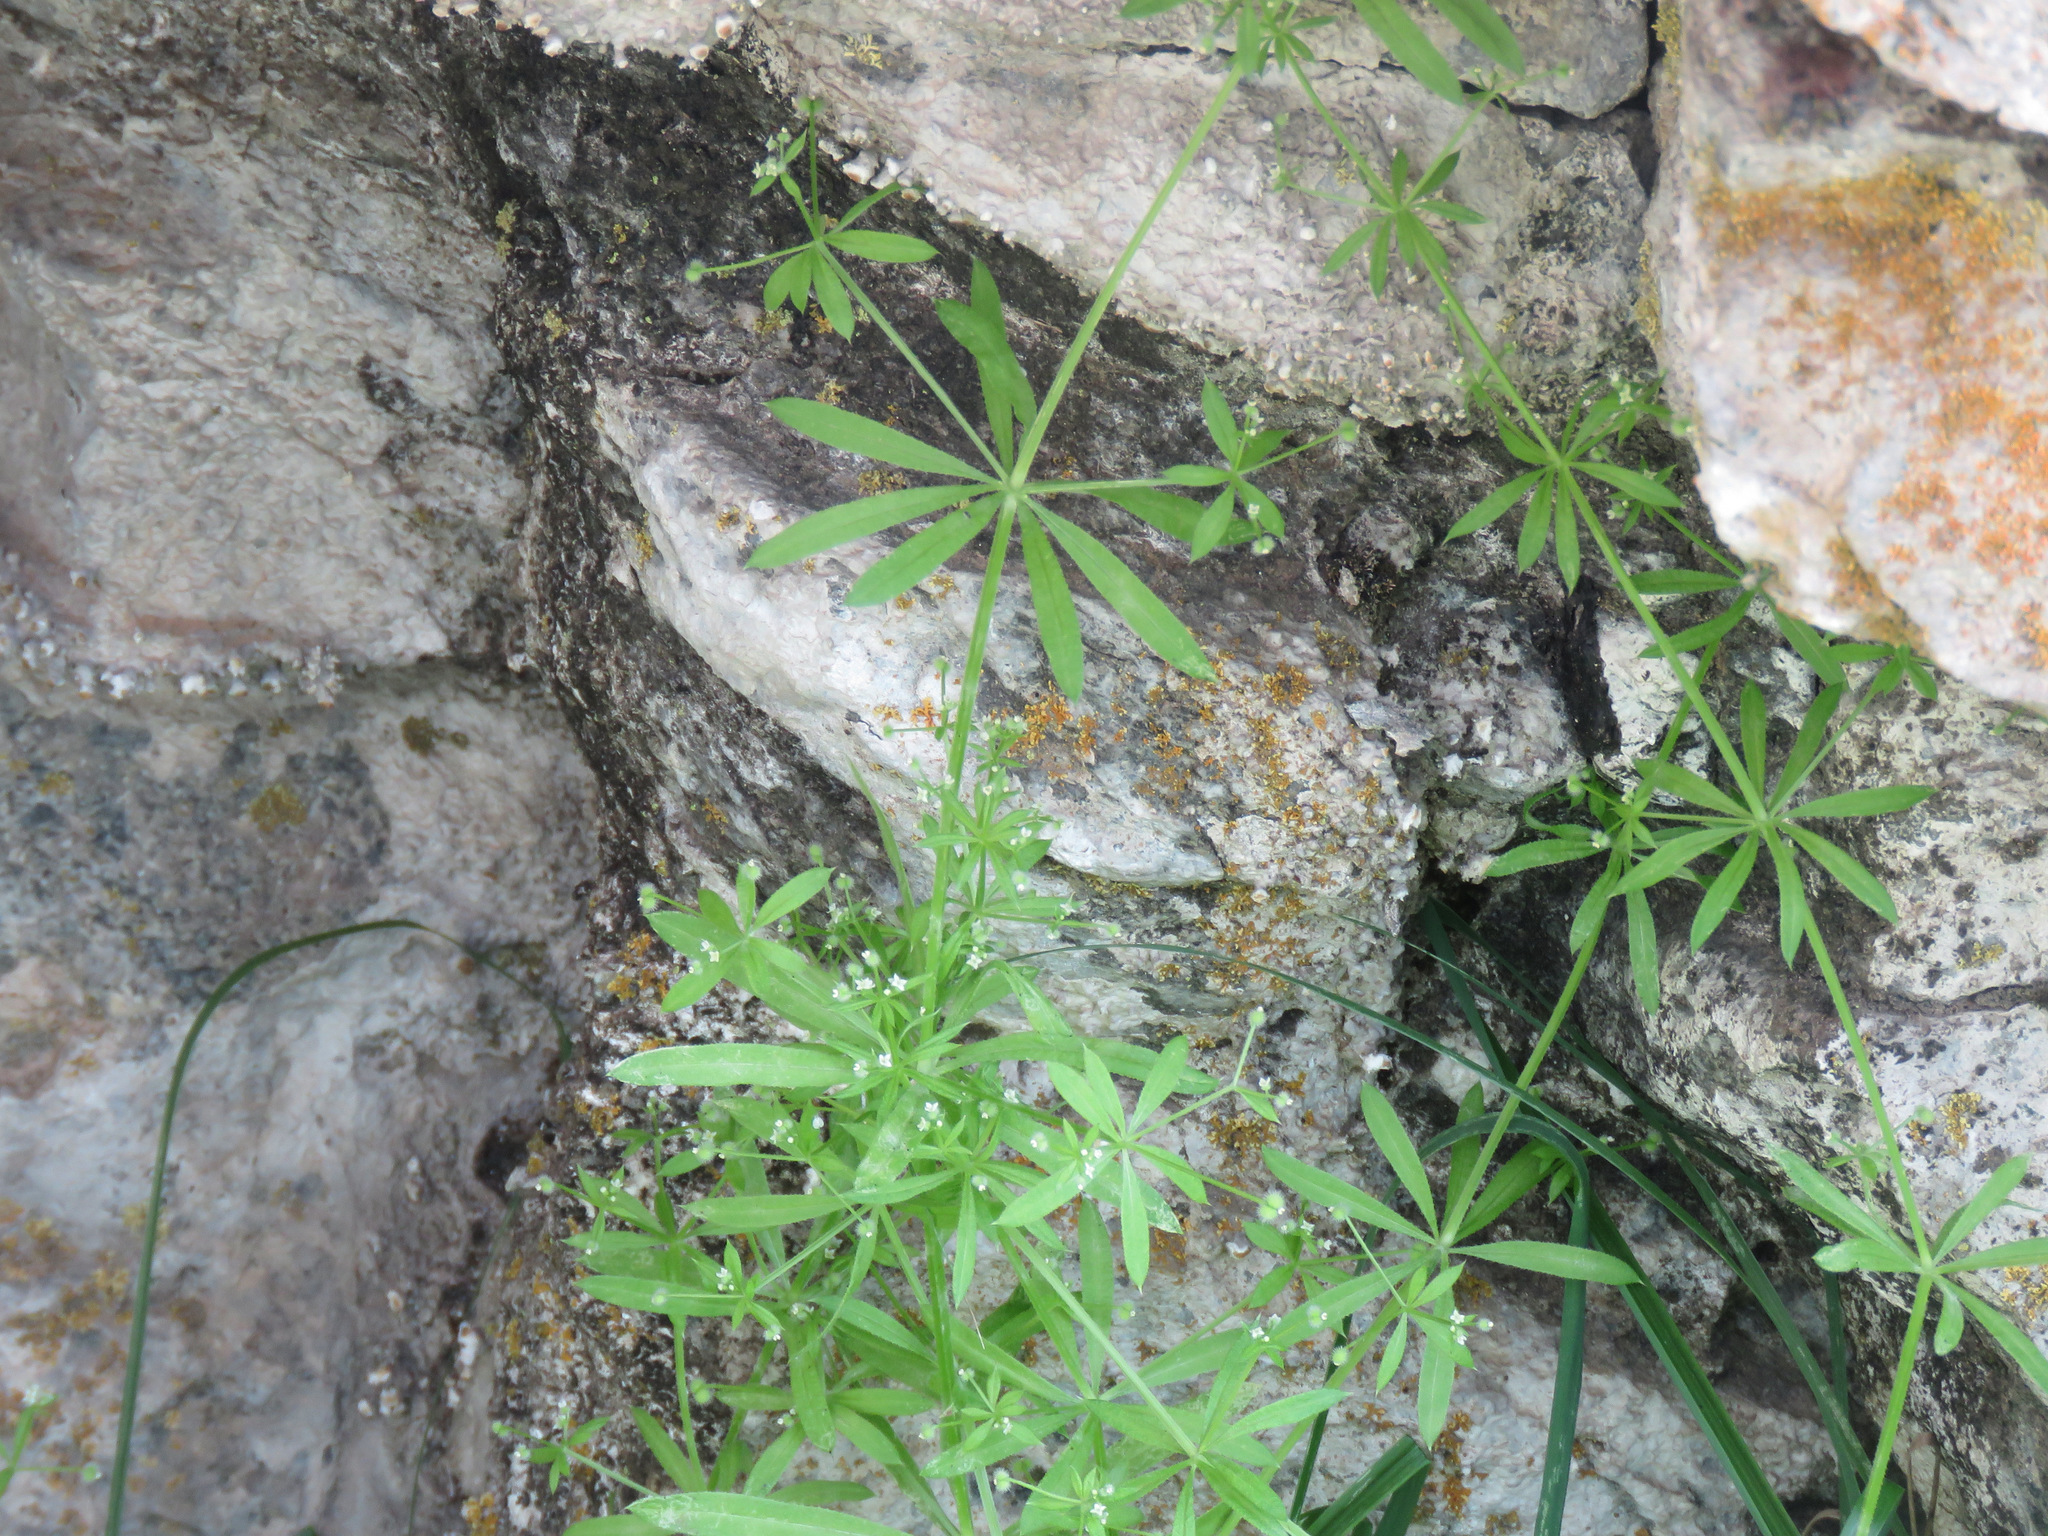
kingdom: Plantae
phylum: Tracheophyta
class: Magnoliopsida
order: Gentianales
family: Rubiaceae
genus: Galium
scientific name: Galium aparine
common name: Cleavers
